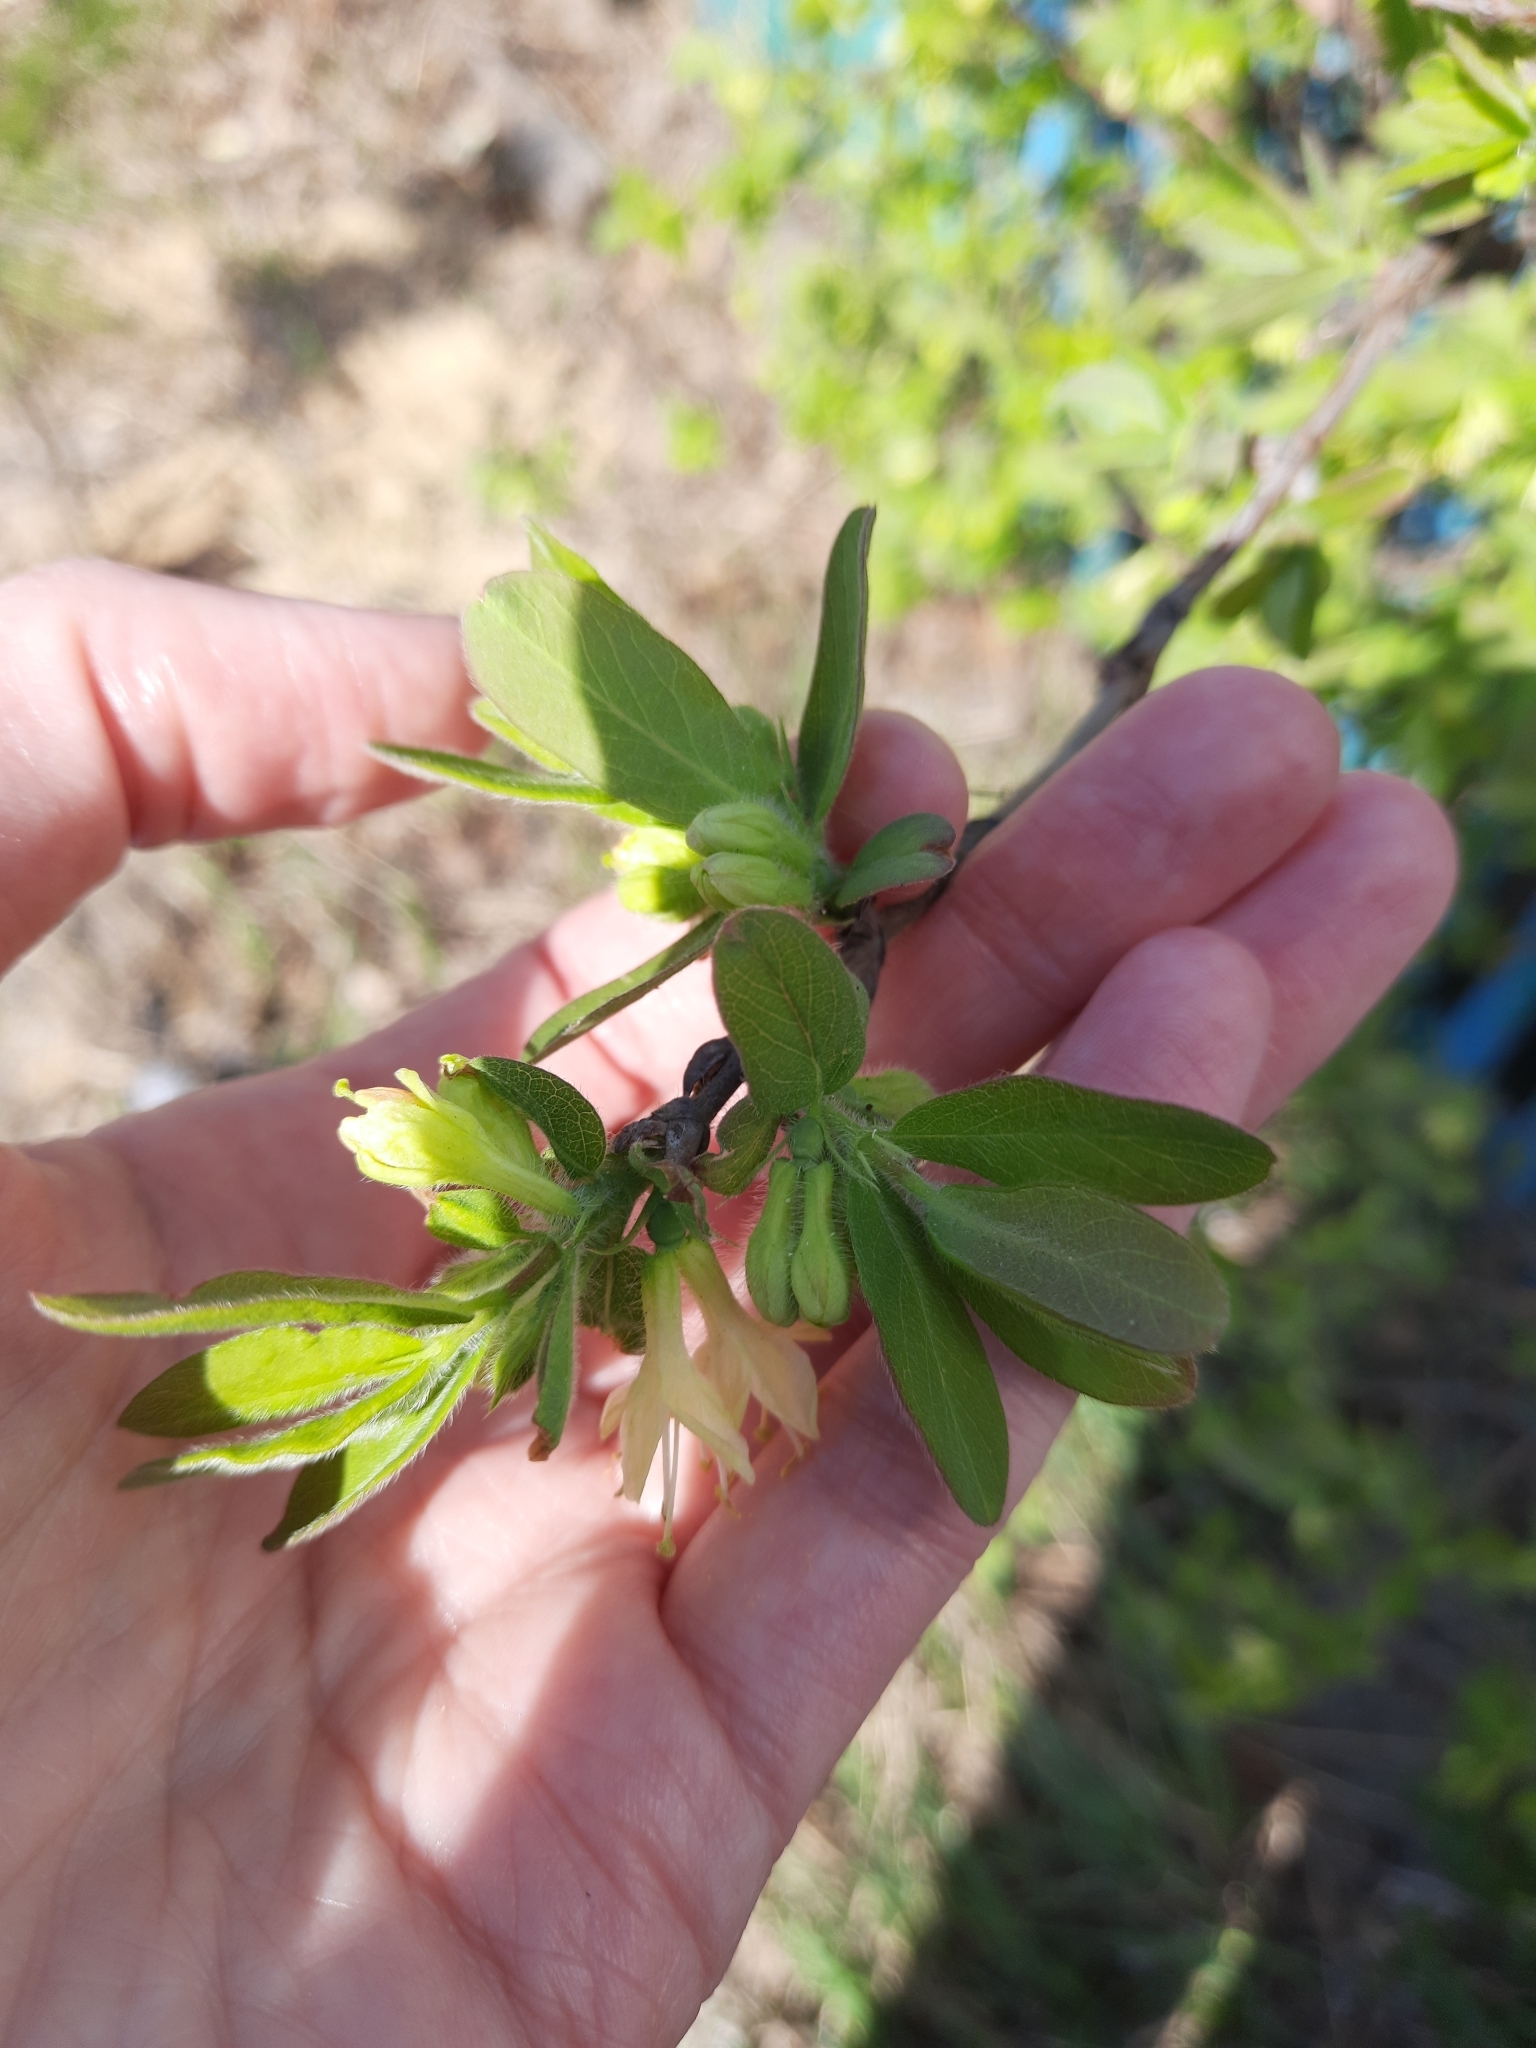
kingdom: Plantae
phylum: Tracheophyta
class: Magnoliopsida
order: Dipsacales
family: Caprifoliaceae
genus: Lonicera
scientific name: Lonicera caerulea
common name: Blue honeysuckle
